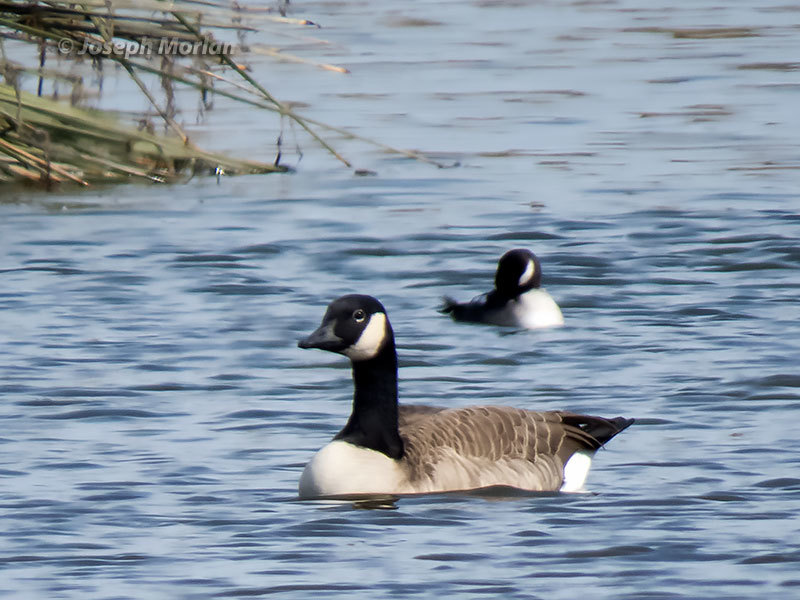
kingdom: Animalia
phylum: Chordata
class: Aves
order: Anseriformes
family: Anatidae
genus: Branta
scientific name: Branta hutchinsii
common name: Cackling goose
